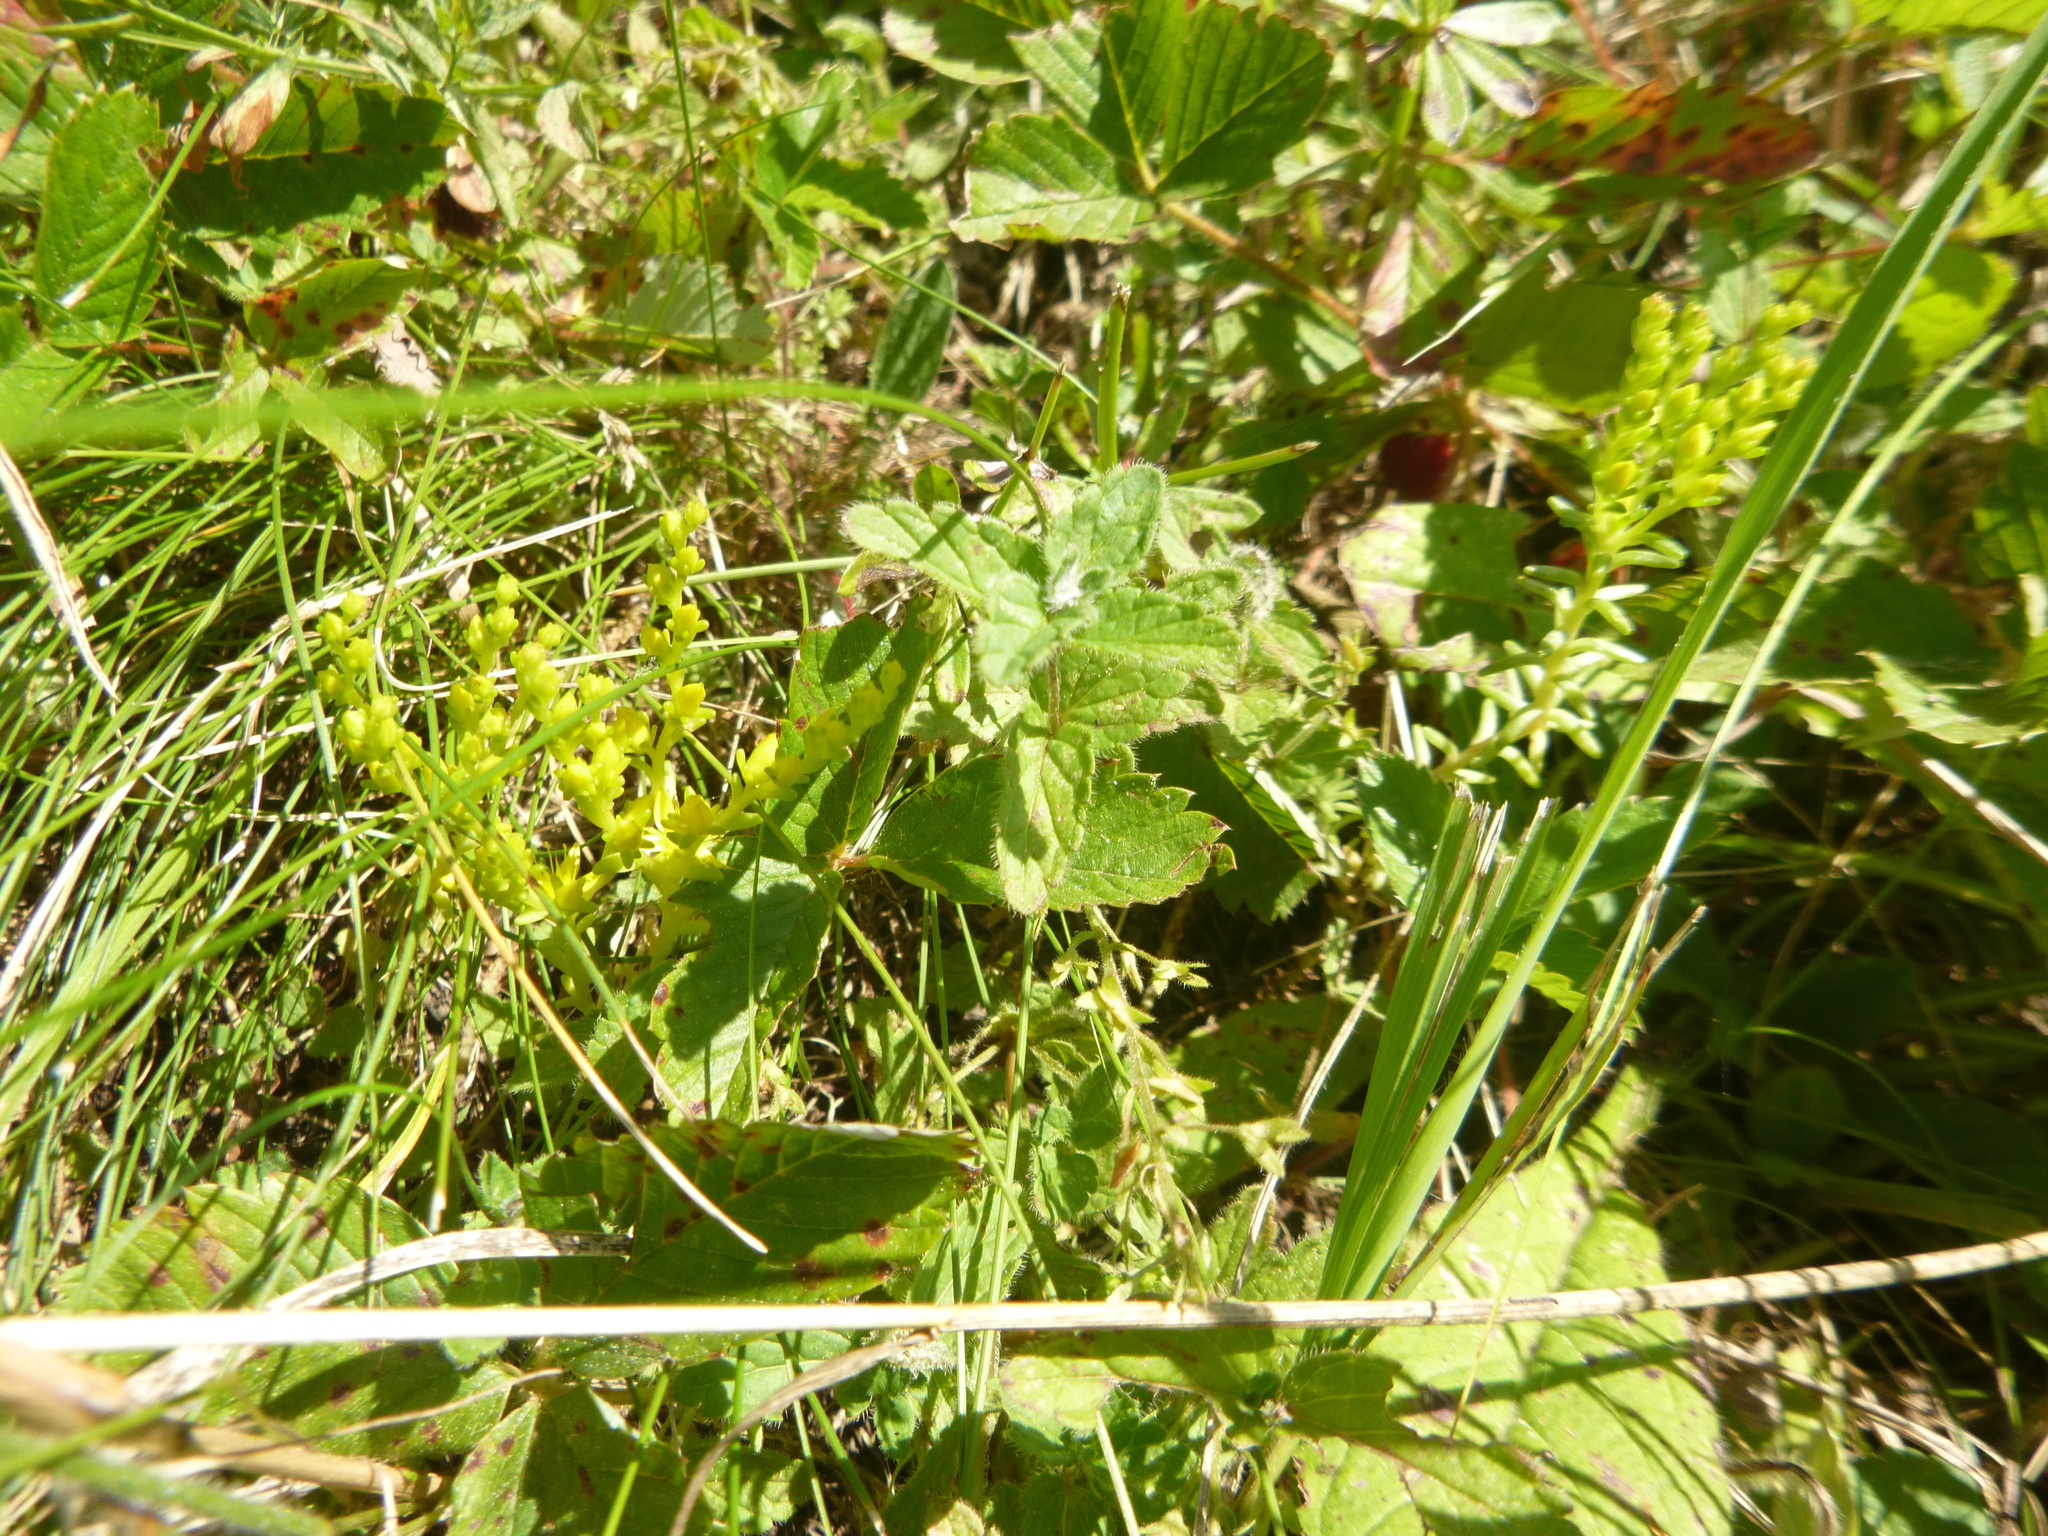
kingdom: Plantae
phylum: Tracheophyta
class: Magnoliopsida
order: Rosales
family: Rosaceae
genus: Fragaria
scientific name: Fragaria viridis
